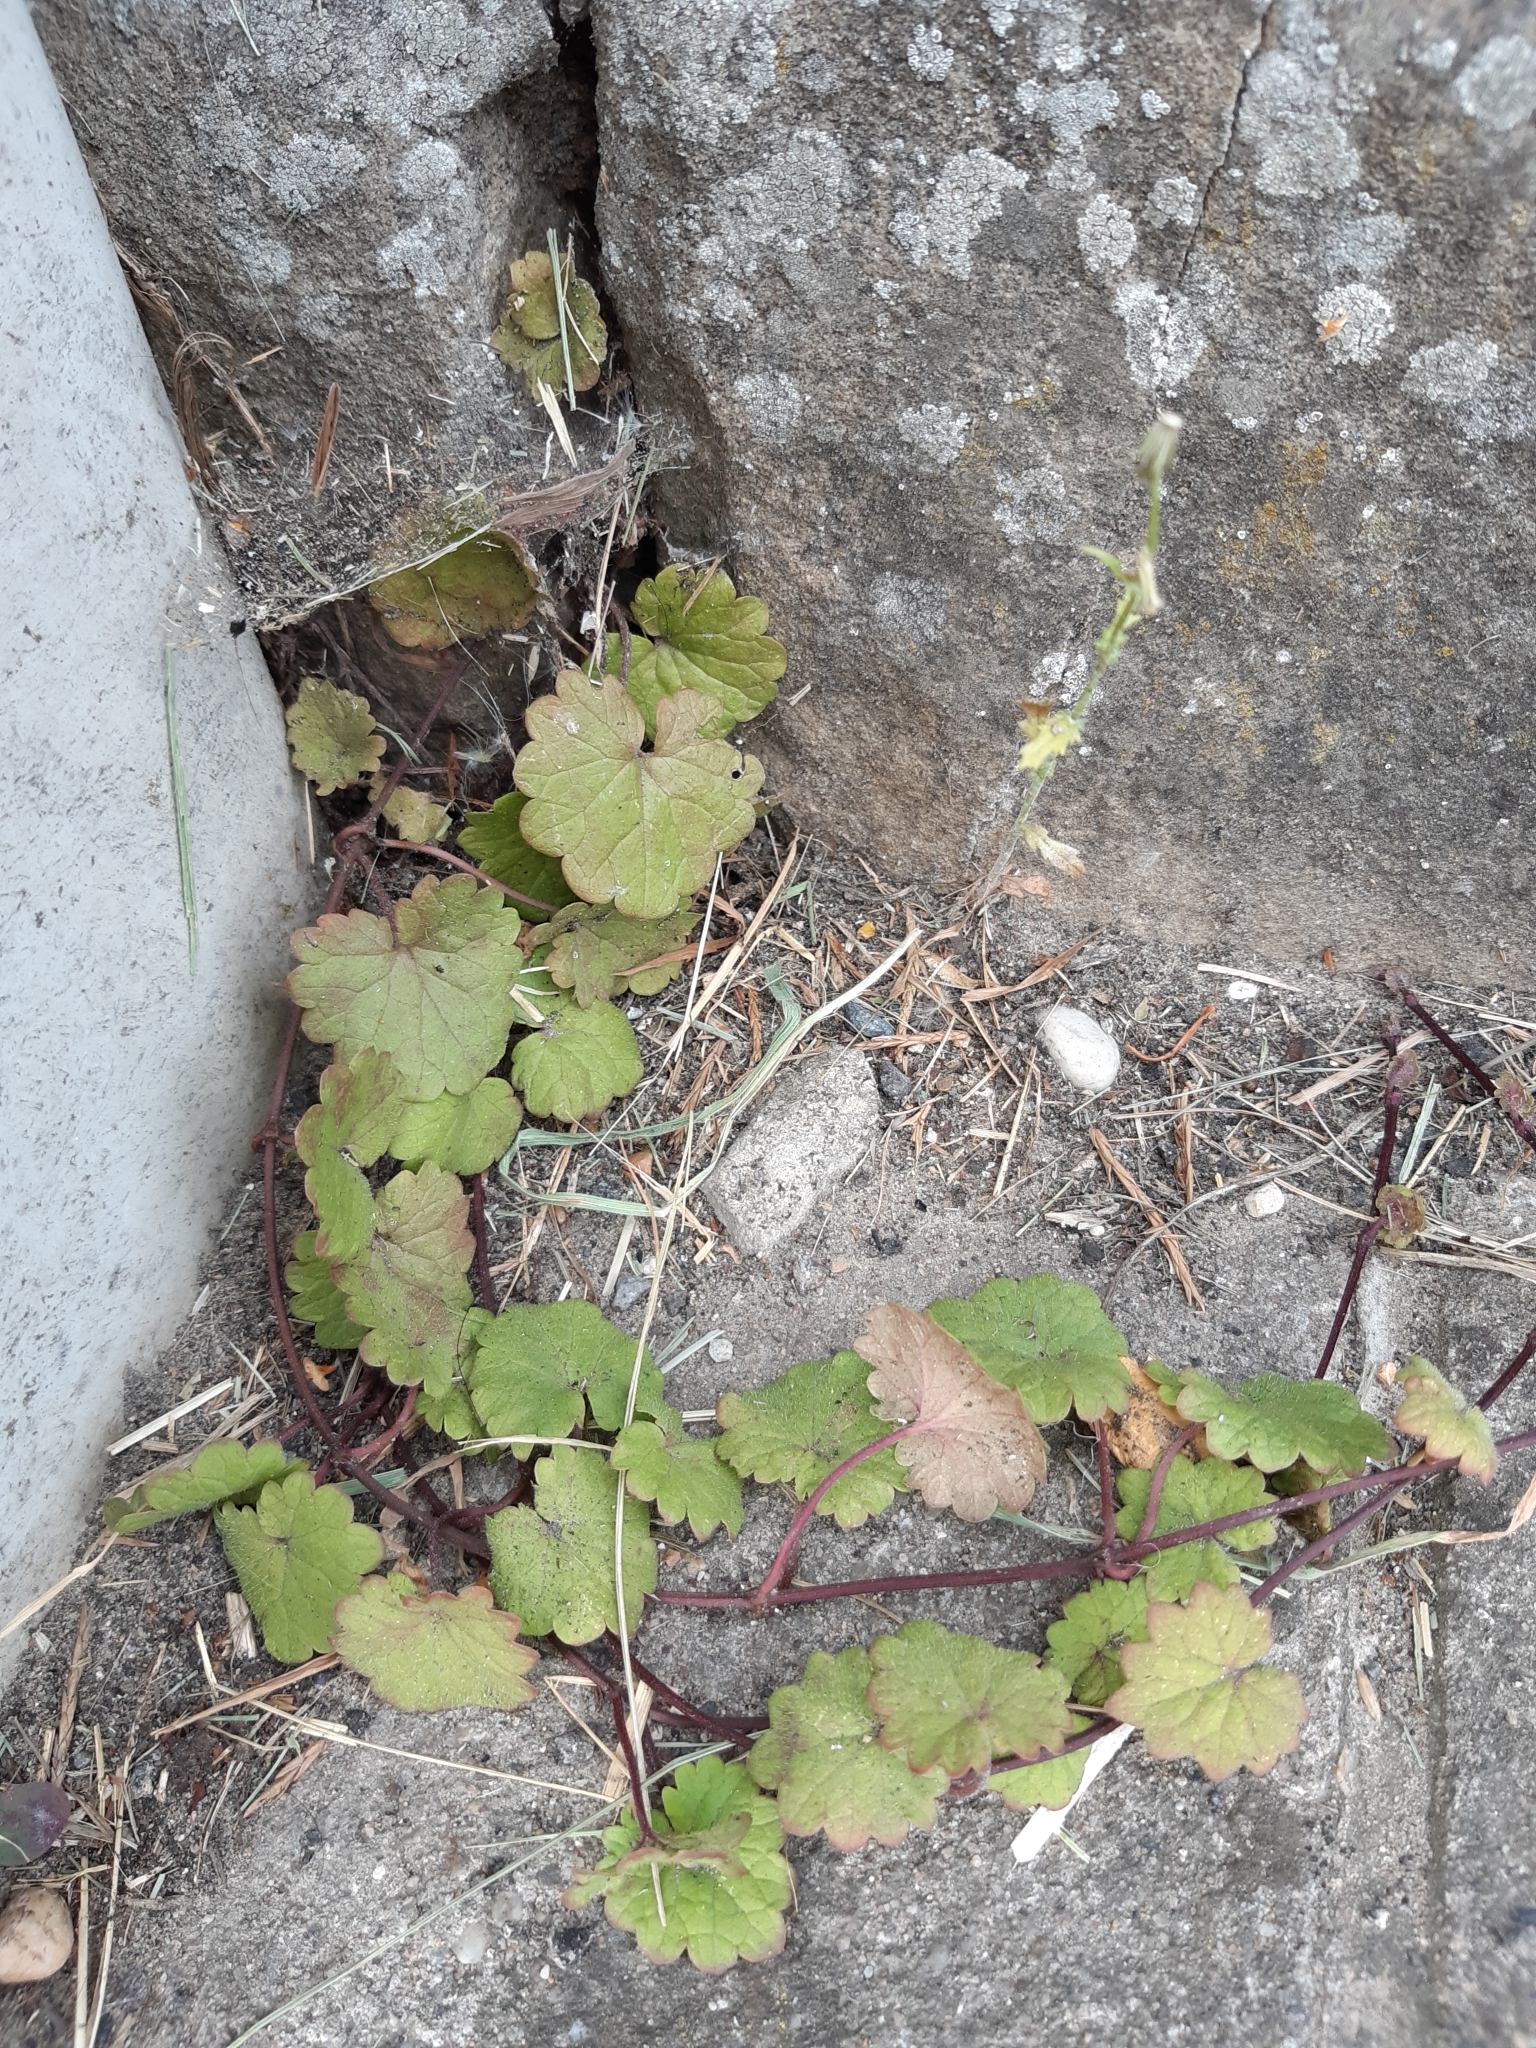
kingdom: Plantae
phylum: Tracheophyta
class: Magnoliopsida
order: Lamiales
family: Lamiaceae
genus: Glechoma
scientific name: Glechoma hederacea
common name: Ground ivy
